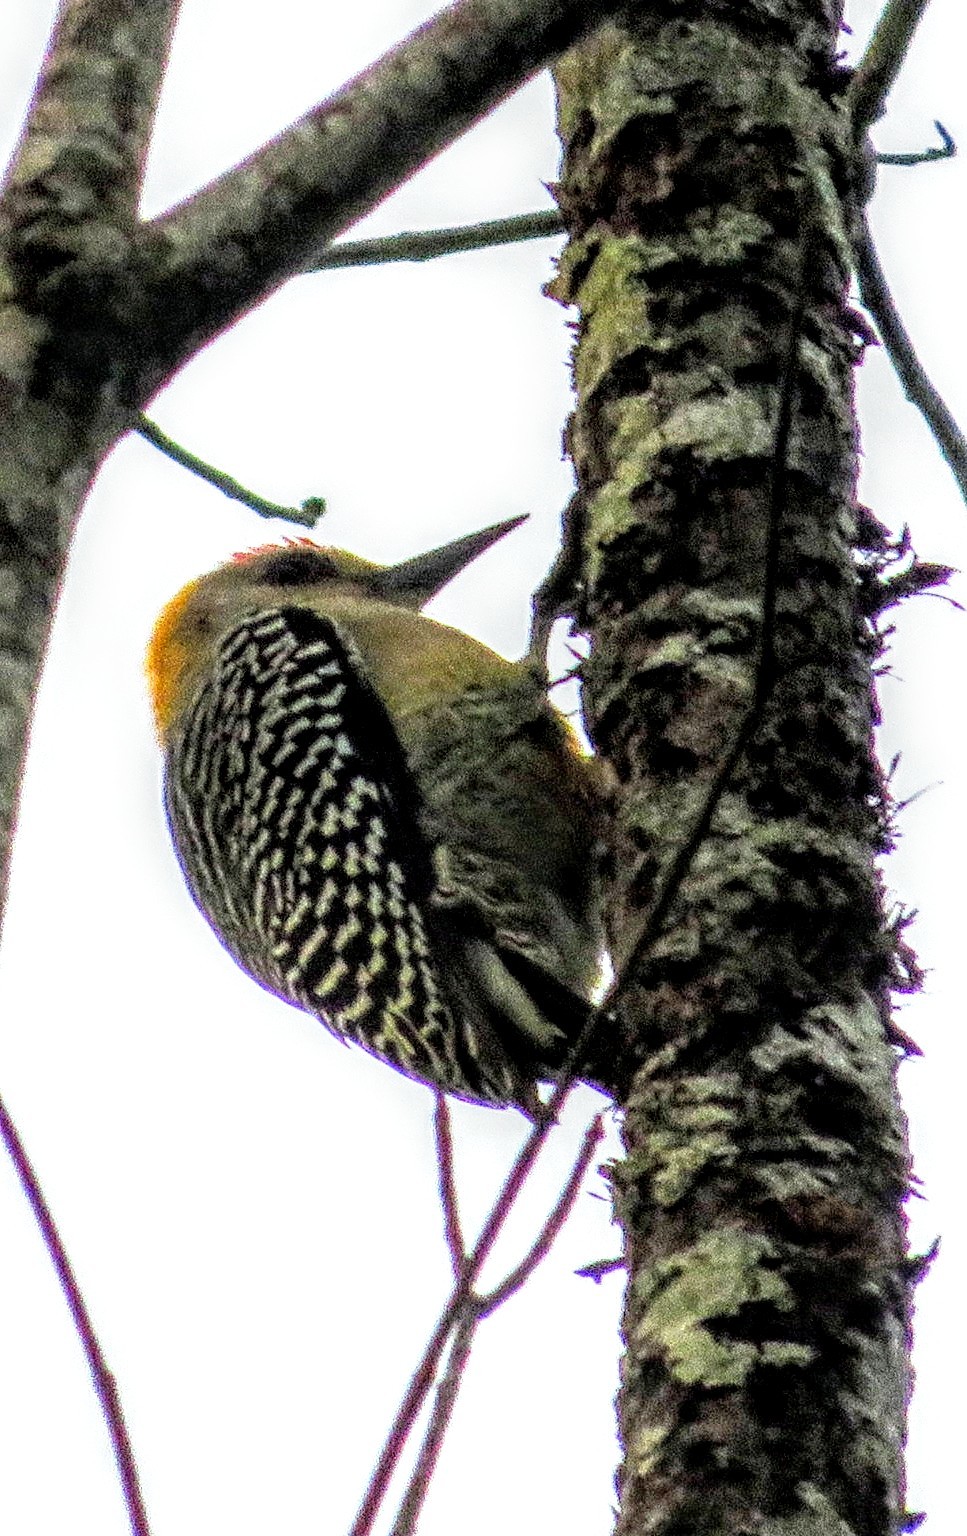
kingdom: Animalia
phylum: Chordata
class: Aves
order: Piciformes
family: Picidae
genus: Melanerpes
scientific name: Melanerpes hoffmannii
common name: Hoffmann's woodpecker
